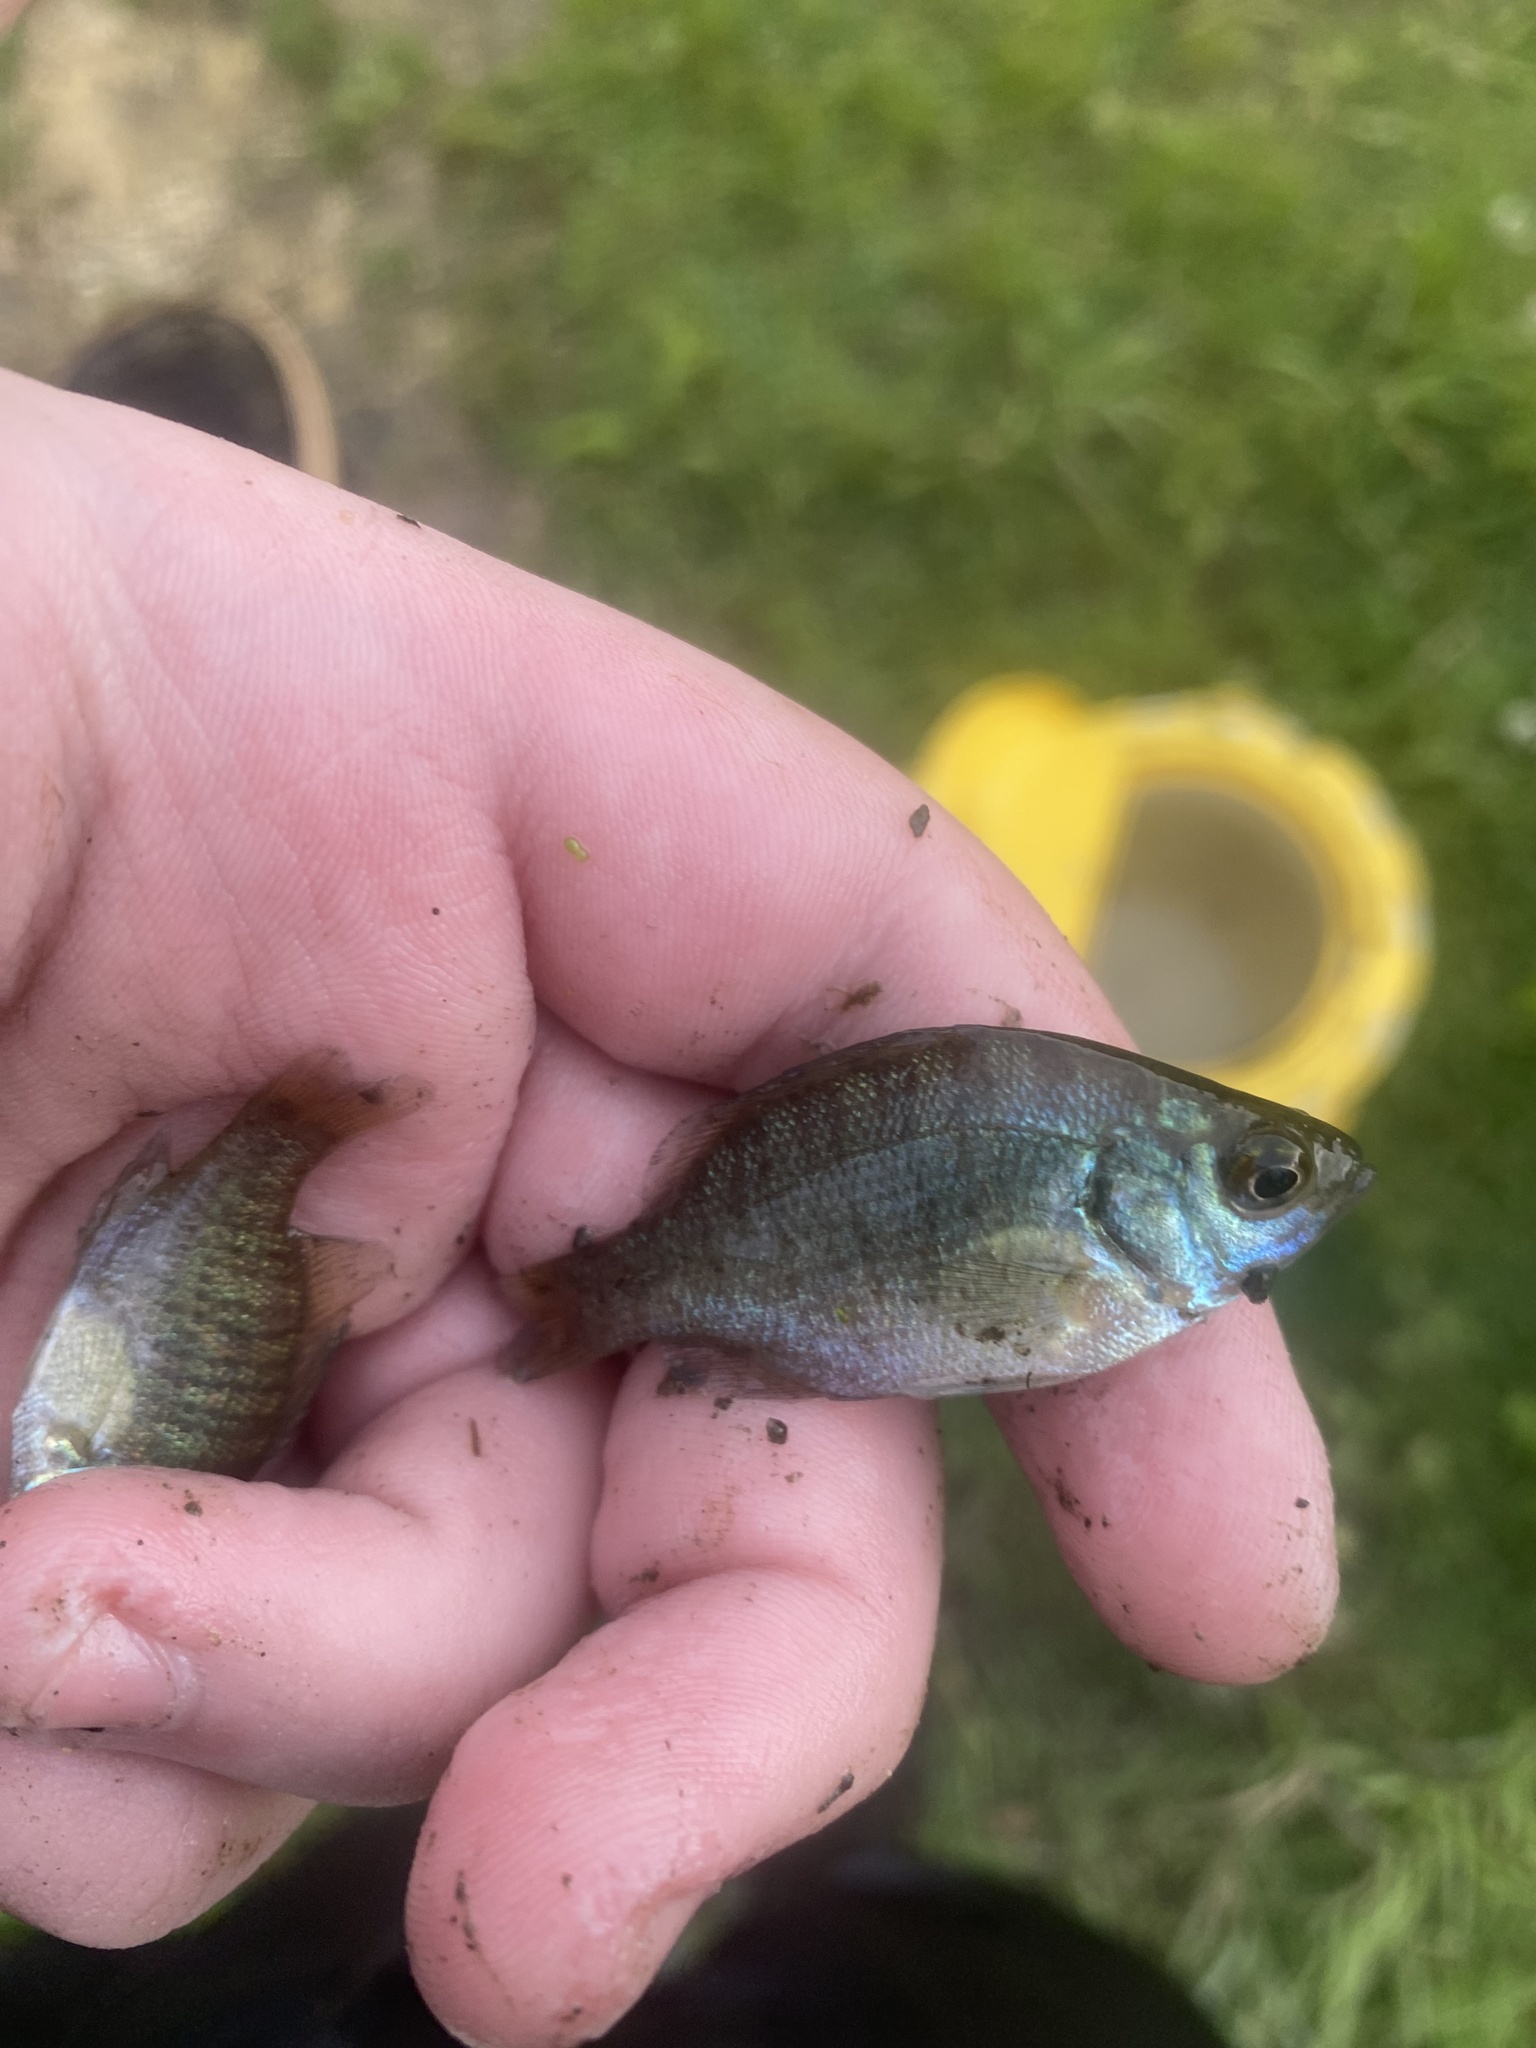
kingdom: Animalia
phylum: Chordata
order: Perciformes
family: Centrarchidae
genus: Lepomis
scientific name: Lepomis macrochirus
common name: Bluegill
